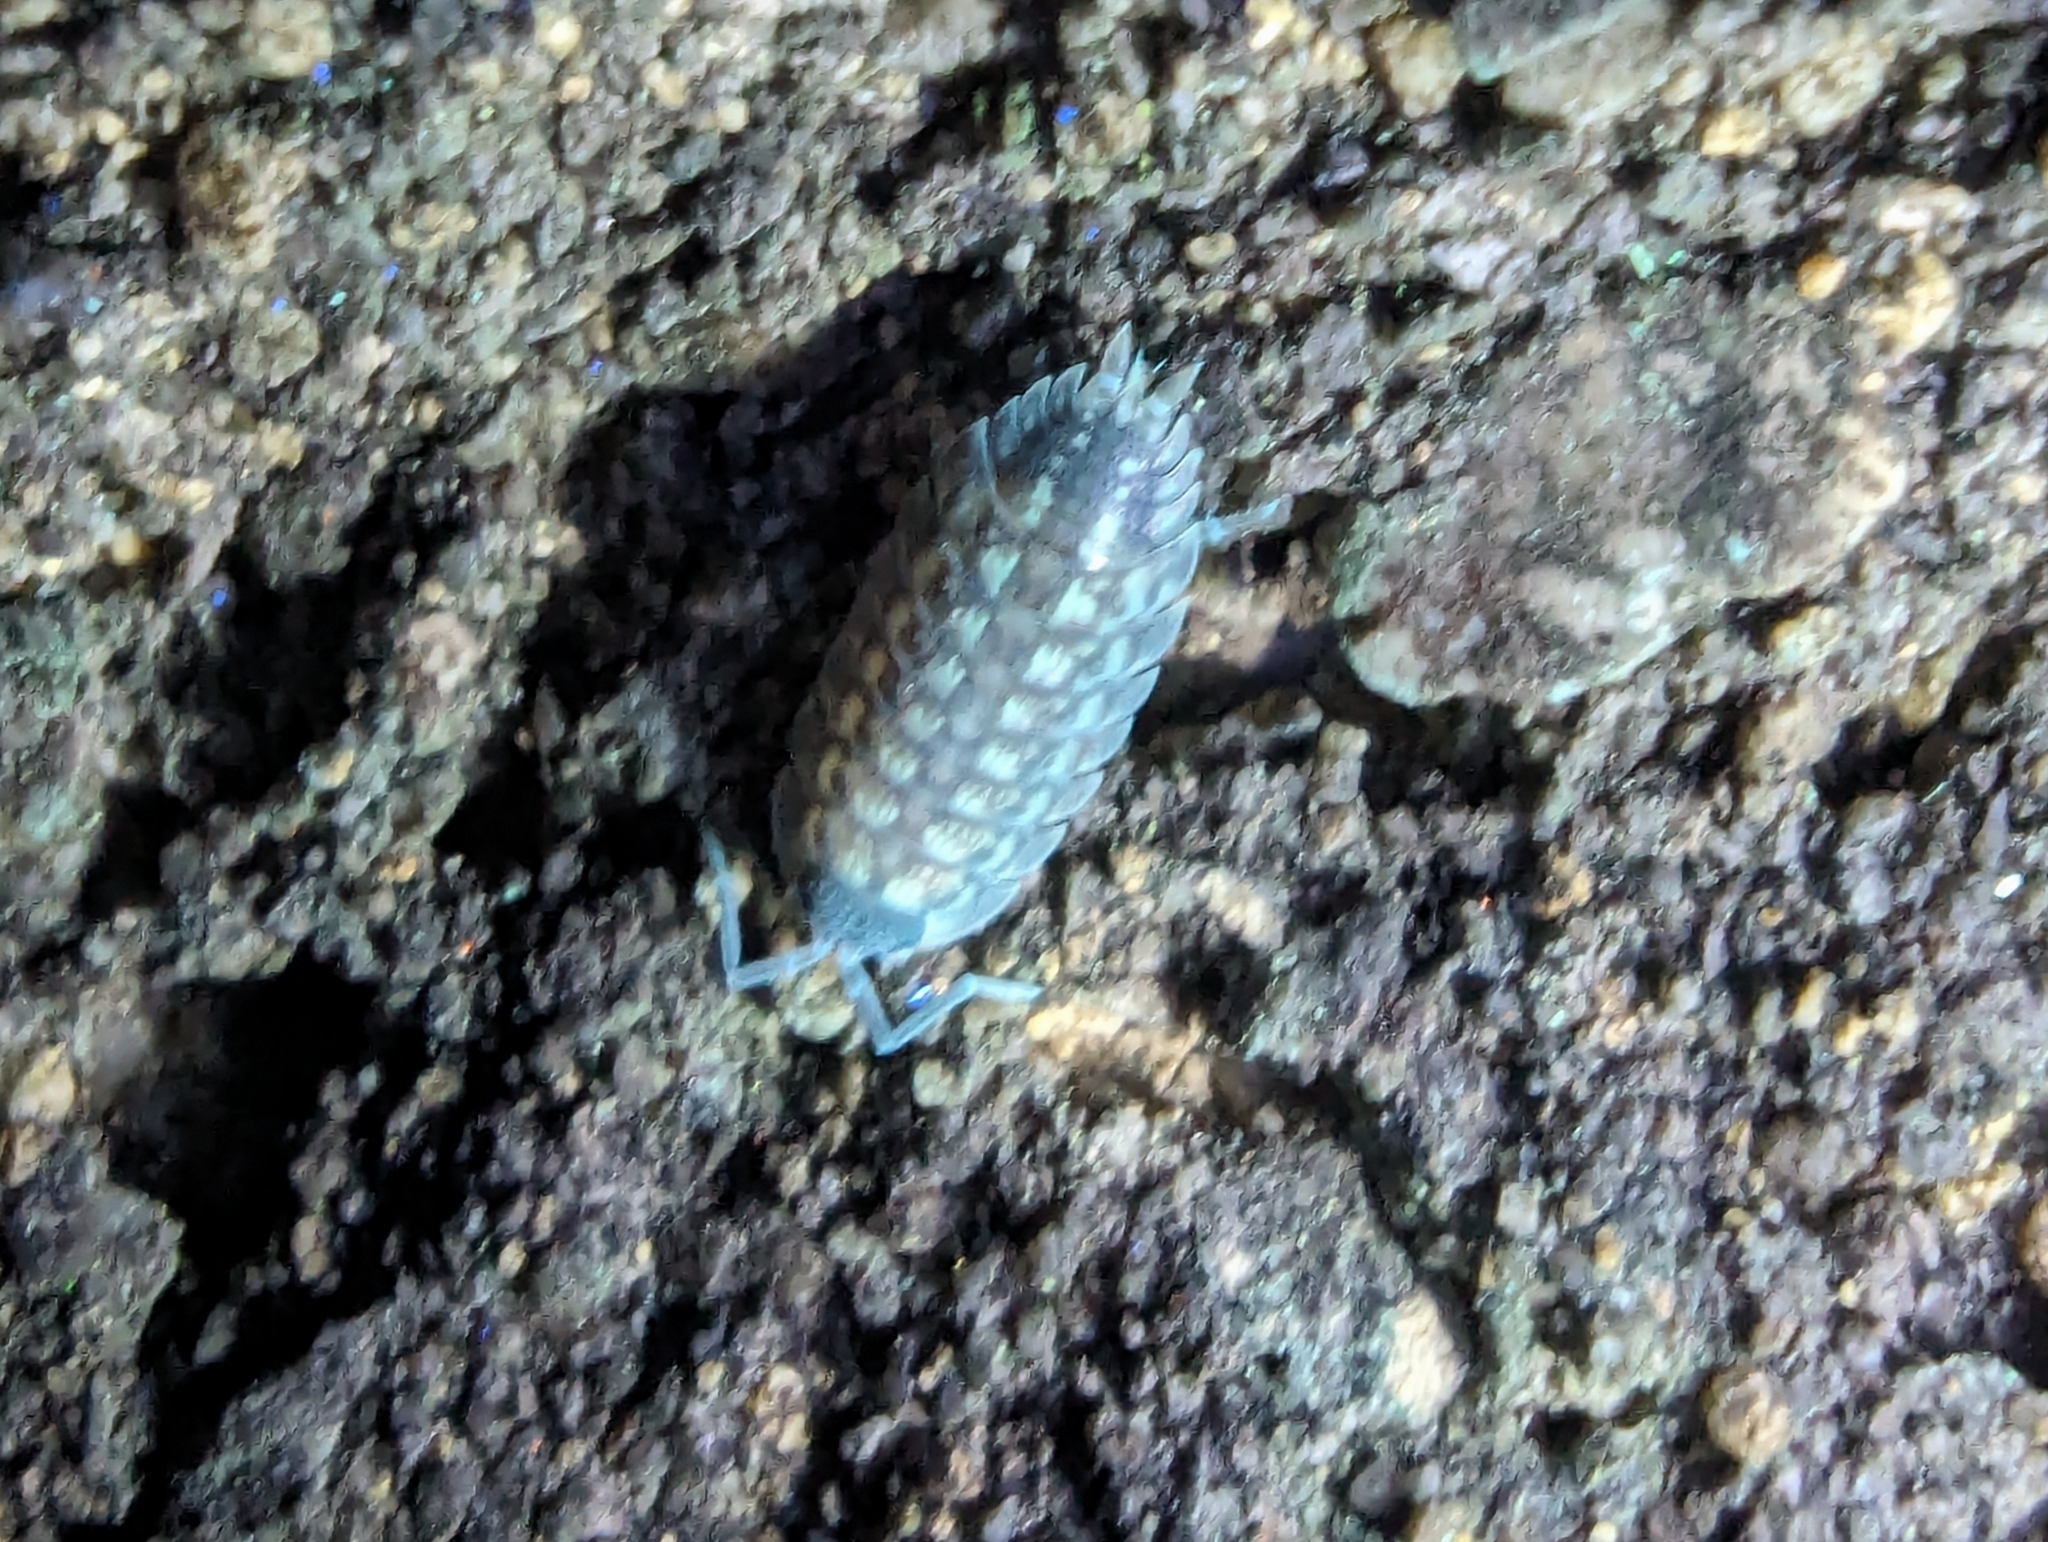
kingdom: Animalia
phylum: Arthropoda
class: Malacostraca
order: Isopoda
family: Porcellionidae
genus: Porcellio
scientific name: Porcellio spinicornis
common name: Painted woodlouse
